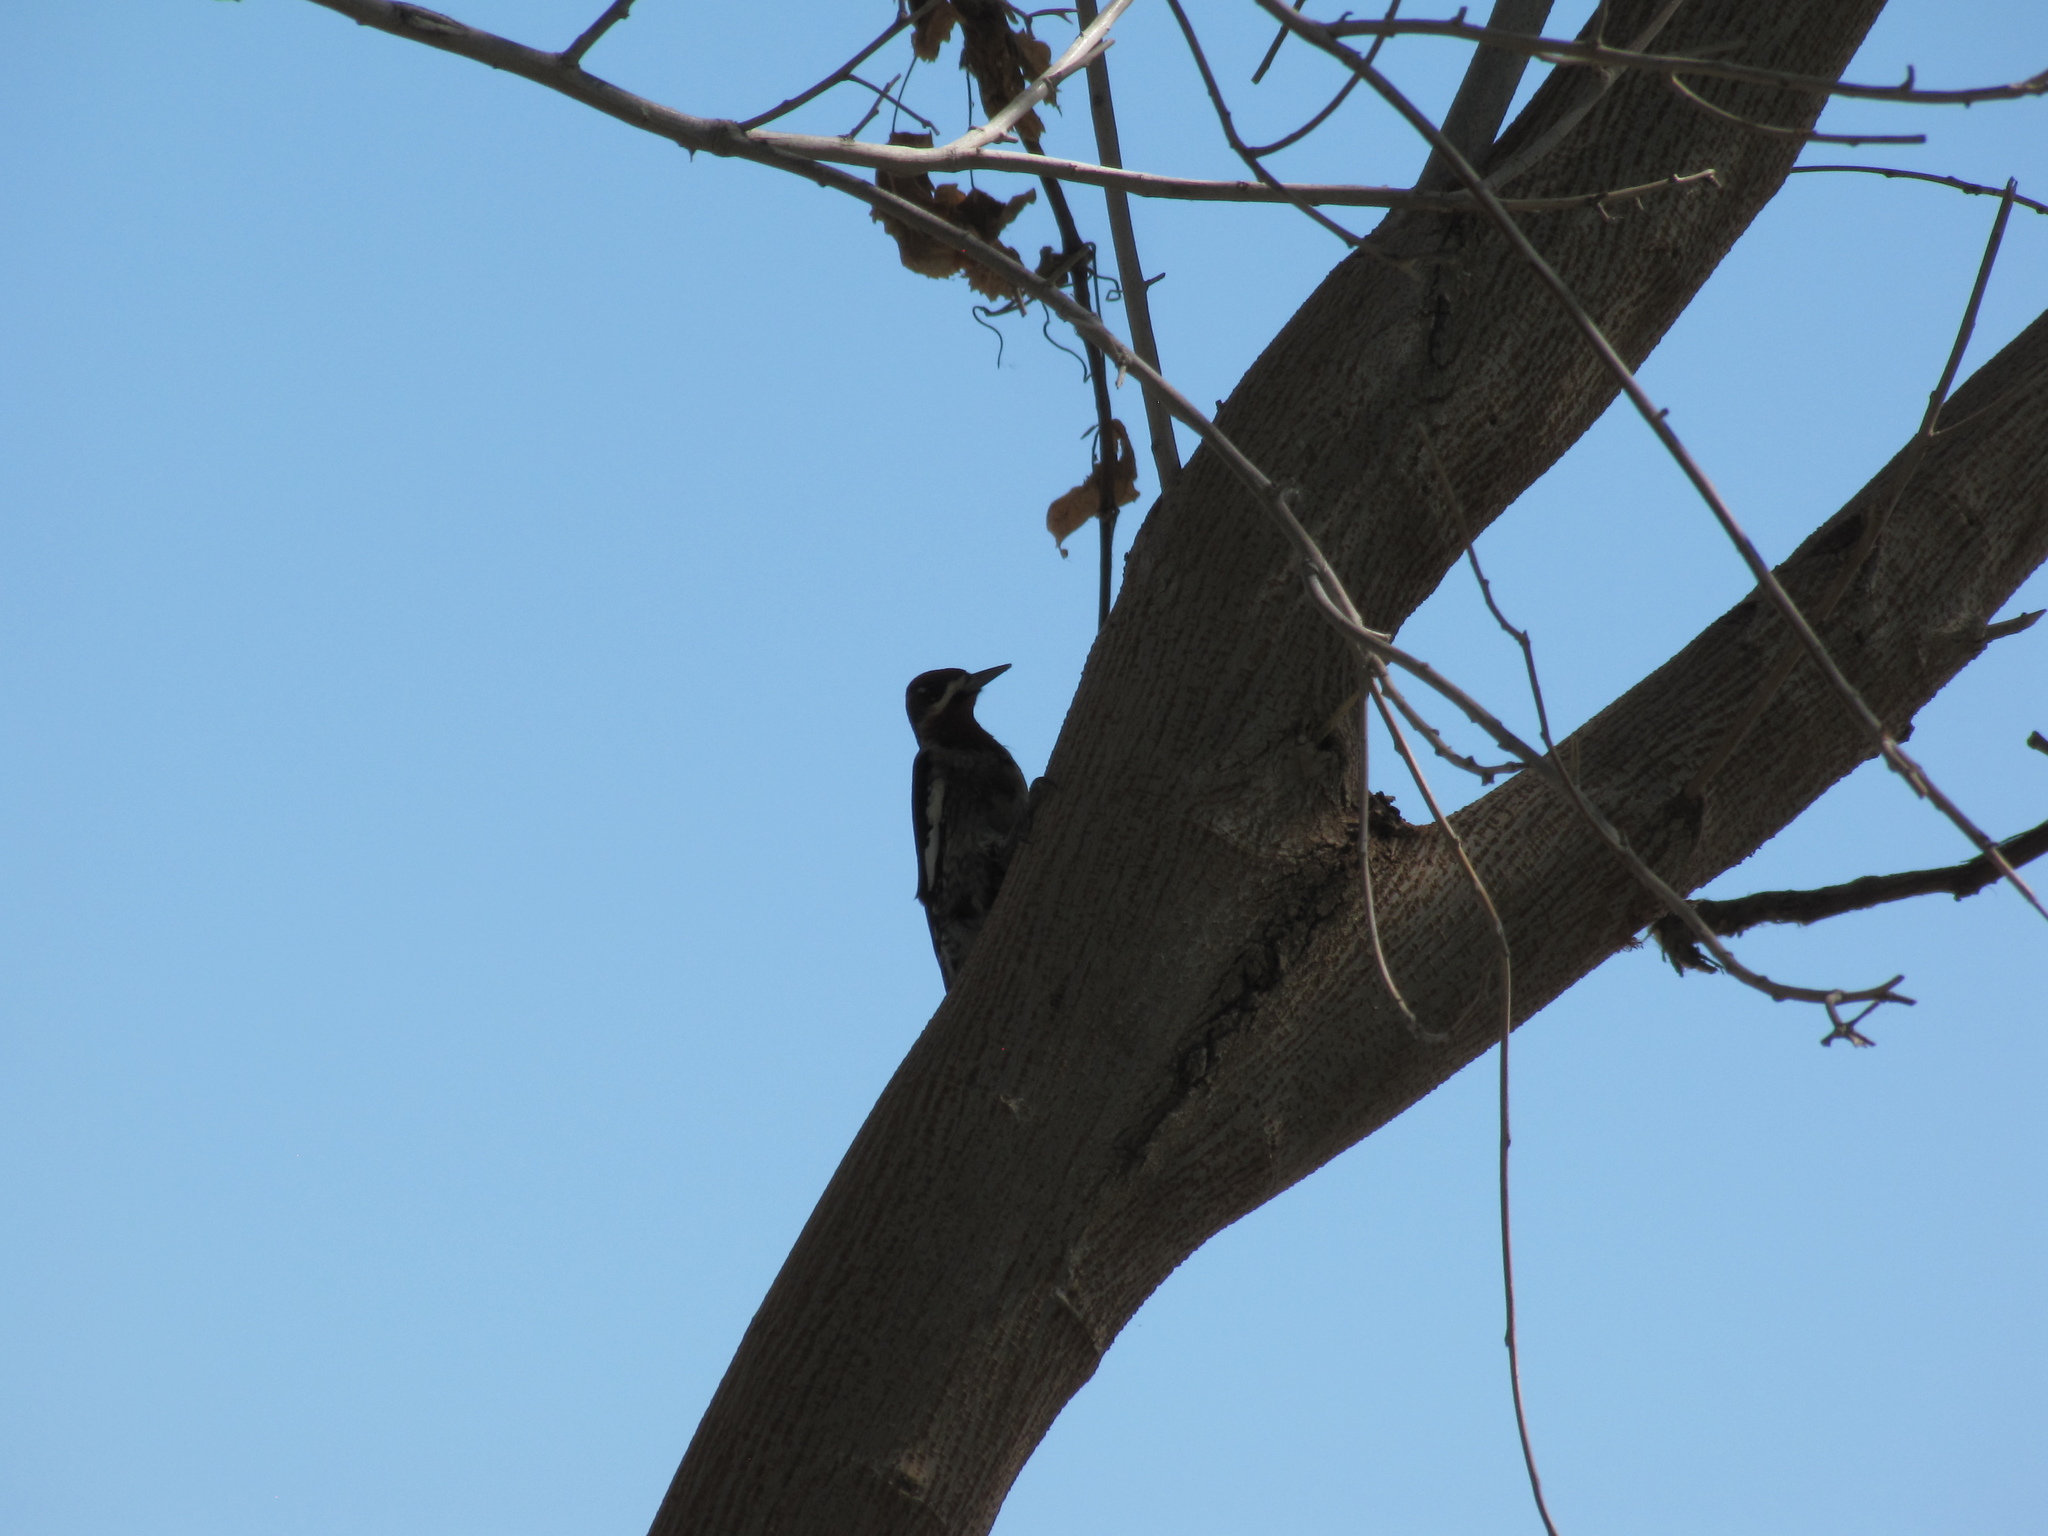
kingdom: Animalia
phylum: Chordata
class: Aves
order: Piciformes
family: Picidae
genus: Sphyrapicus
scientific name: Sphyrapicus nuchalis
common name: Red-naped sapsucker
